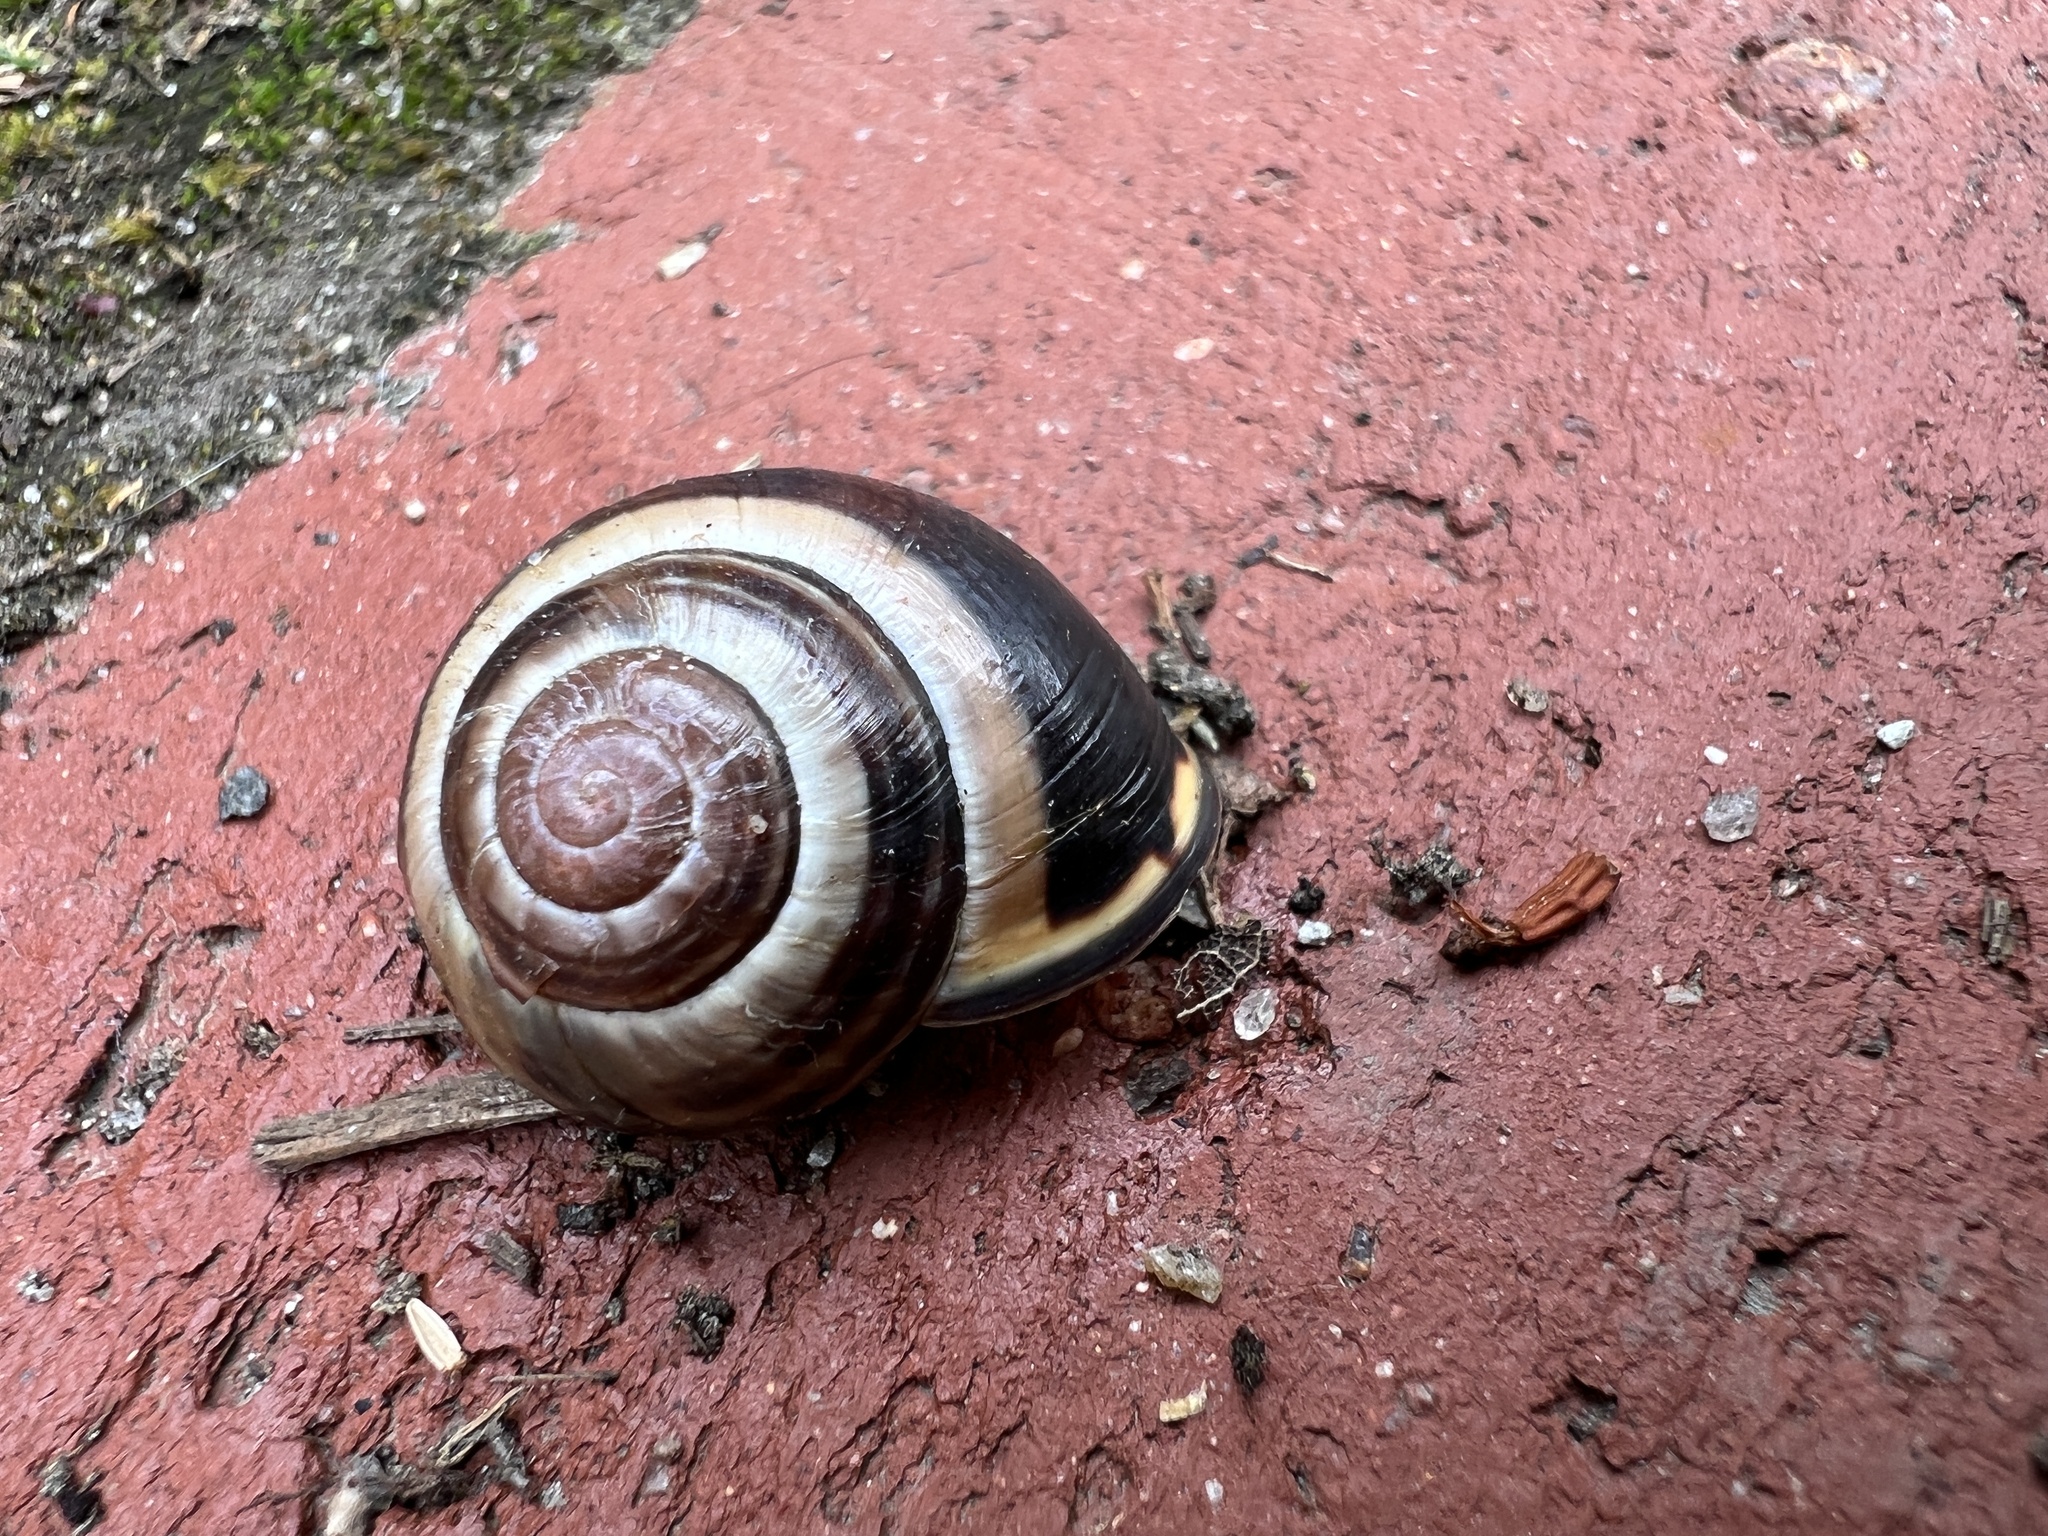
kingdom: Animalia
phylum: Mollusca
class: Gastropoda
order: Stylommatophora
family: Helicidae
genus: Cepaea
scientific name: Cepaea nemoralis
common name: Grovesnail
